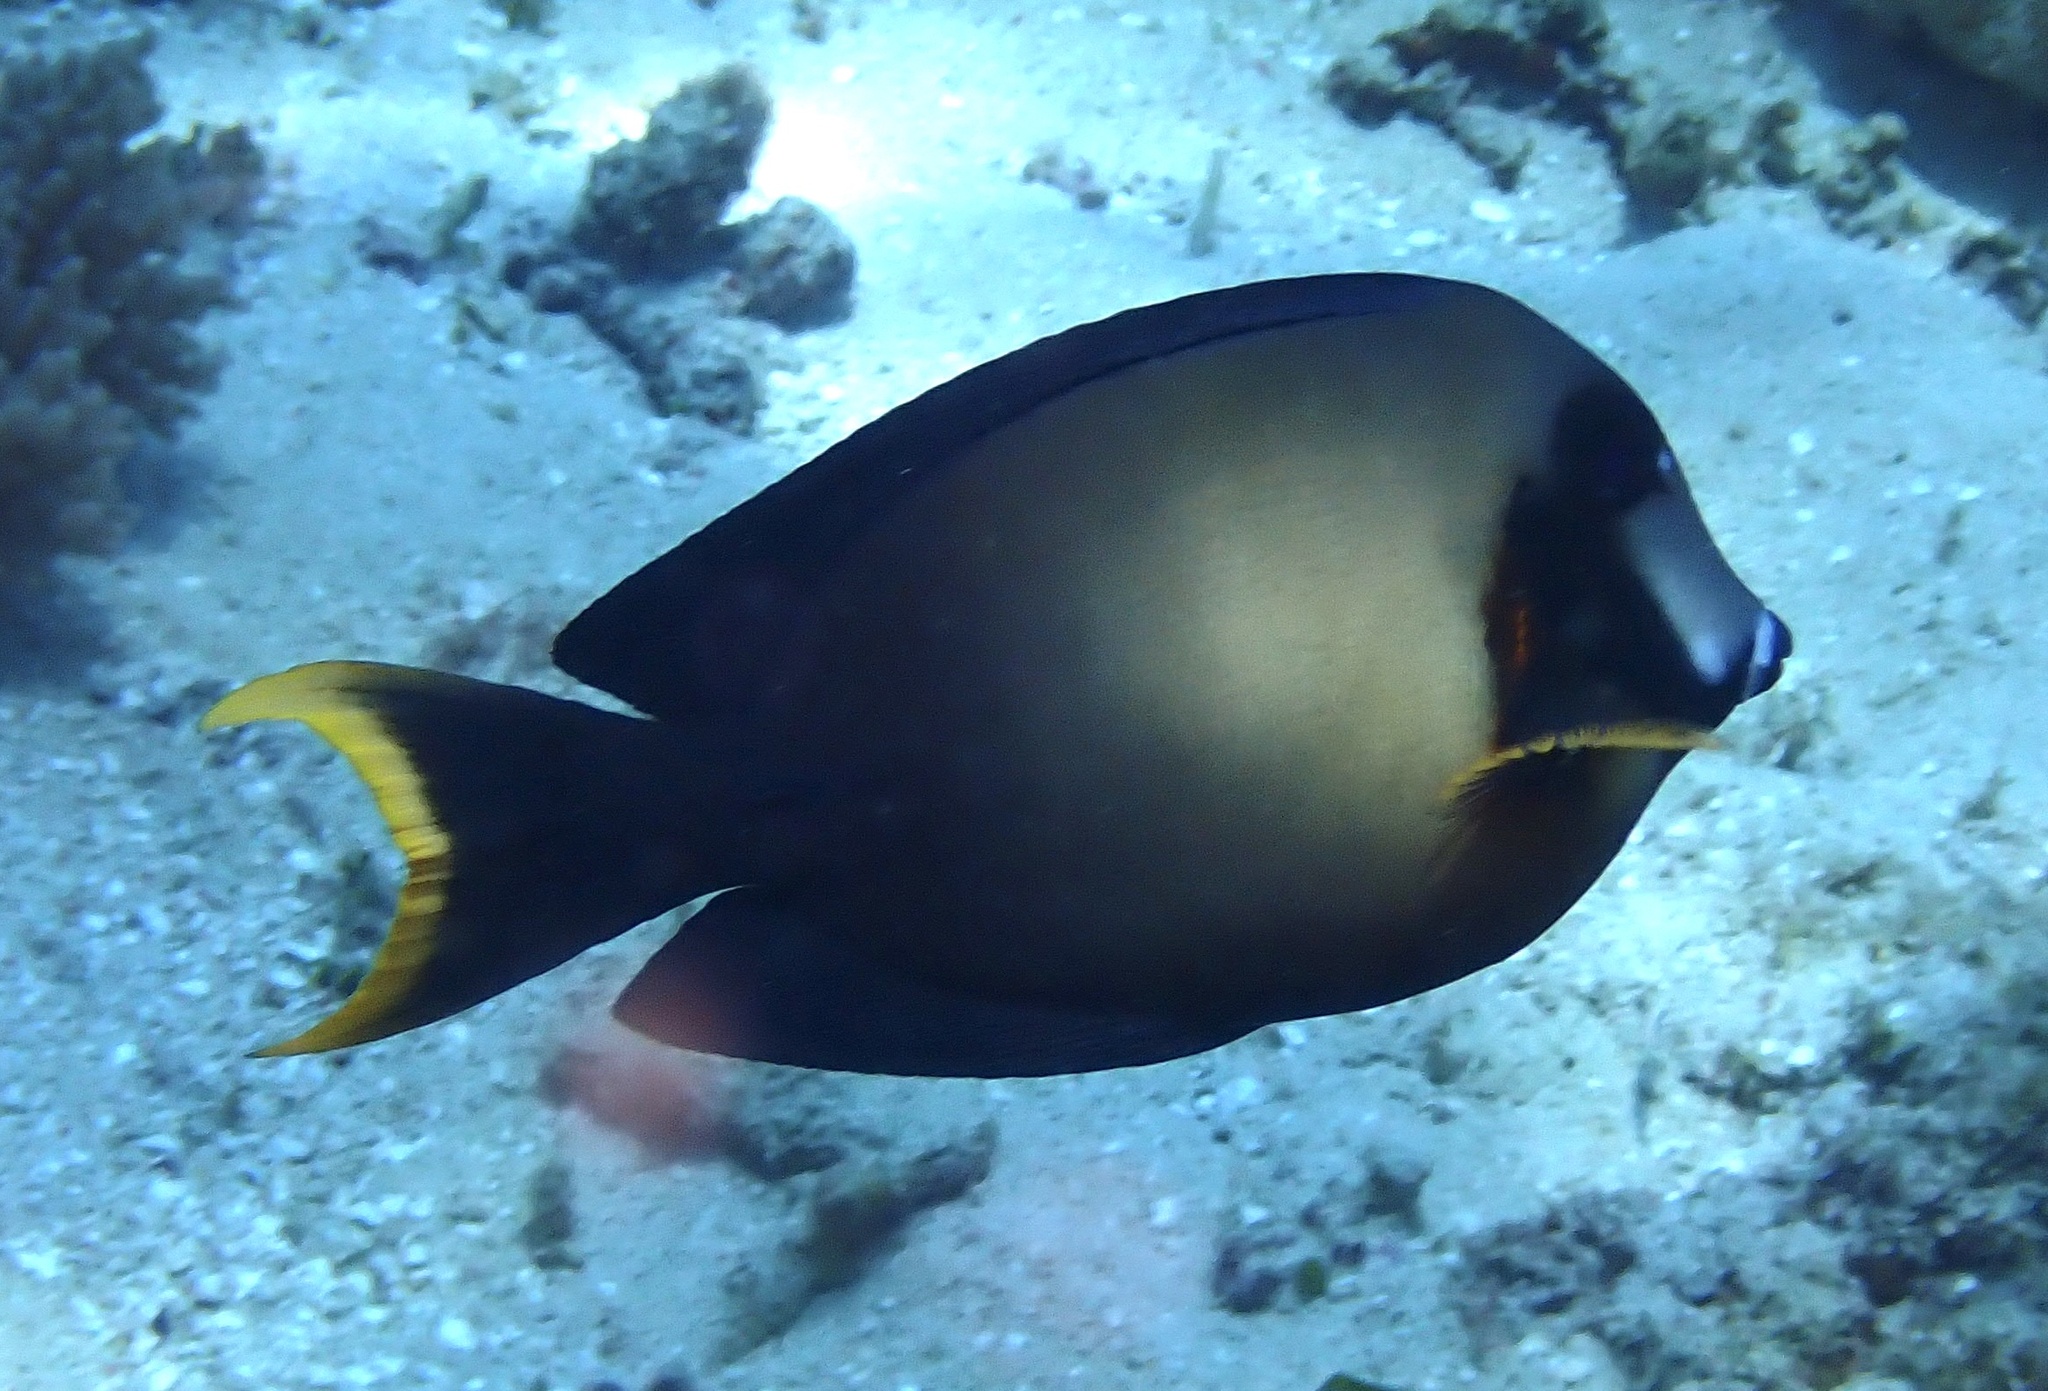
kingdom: Animalia
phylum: Chordata
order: Perciformes
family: Acanthuridae
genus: Acanthurus
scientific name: Acanthurus pyroferus
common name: Chocolate surgeonfish
